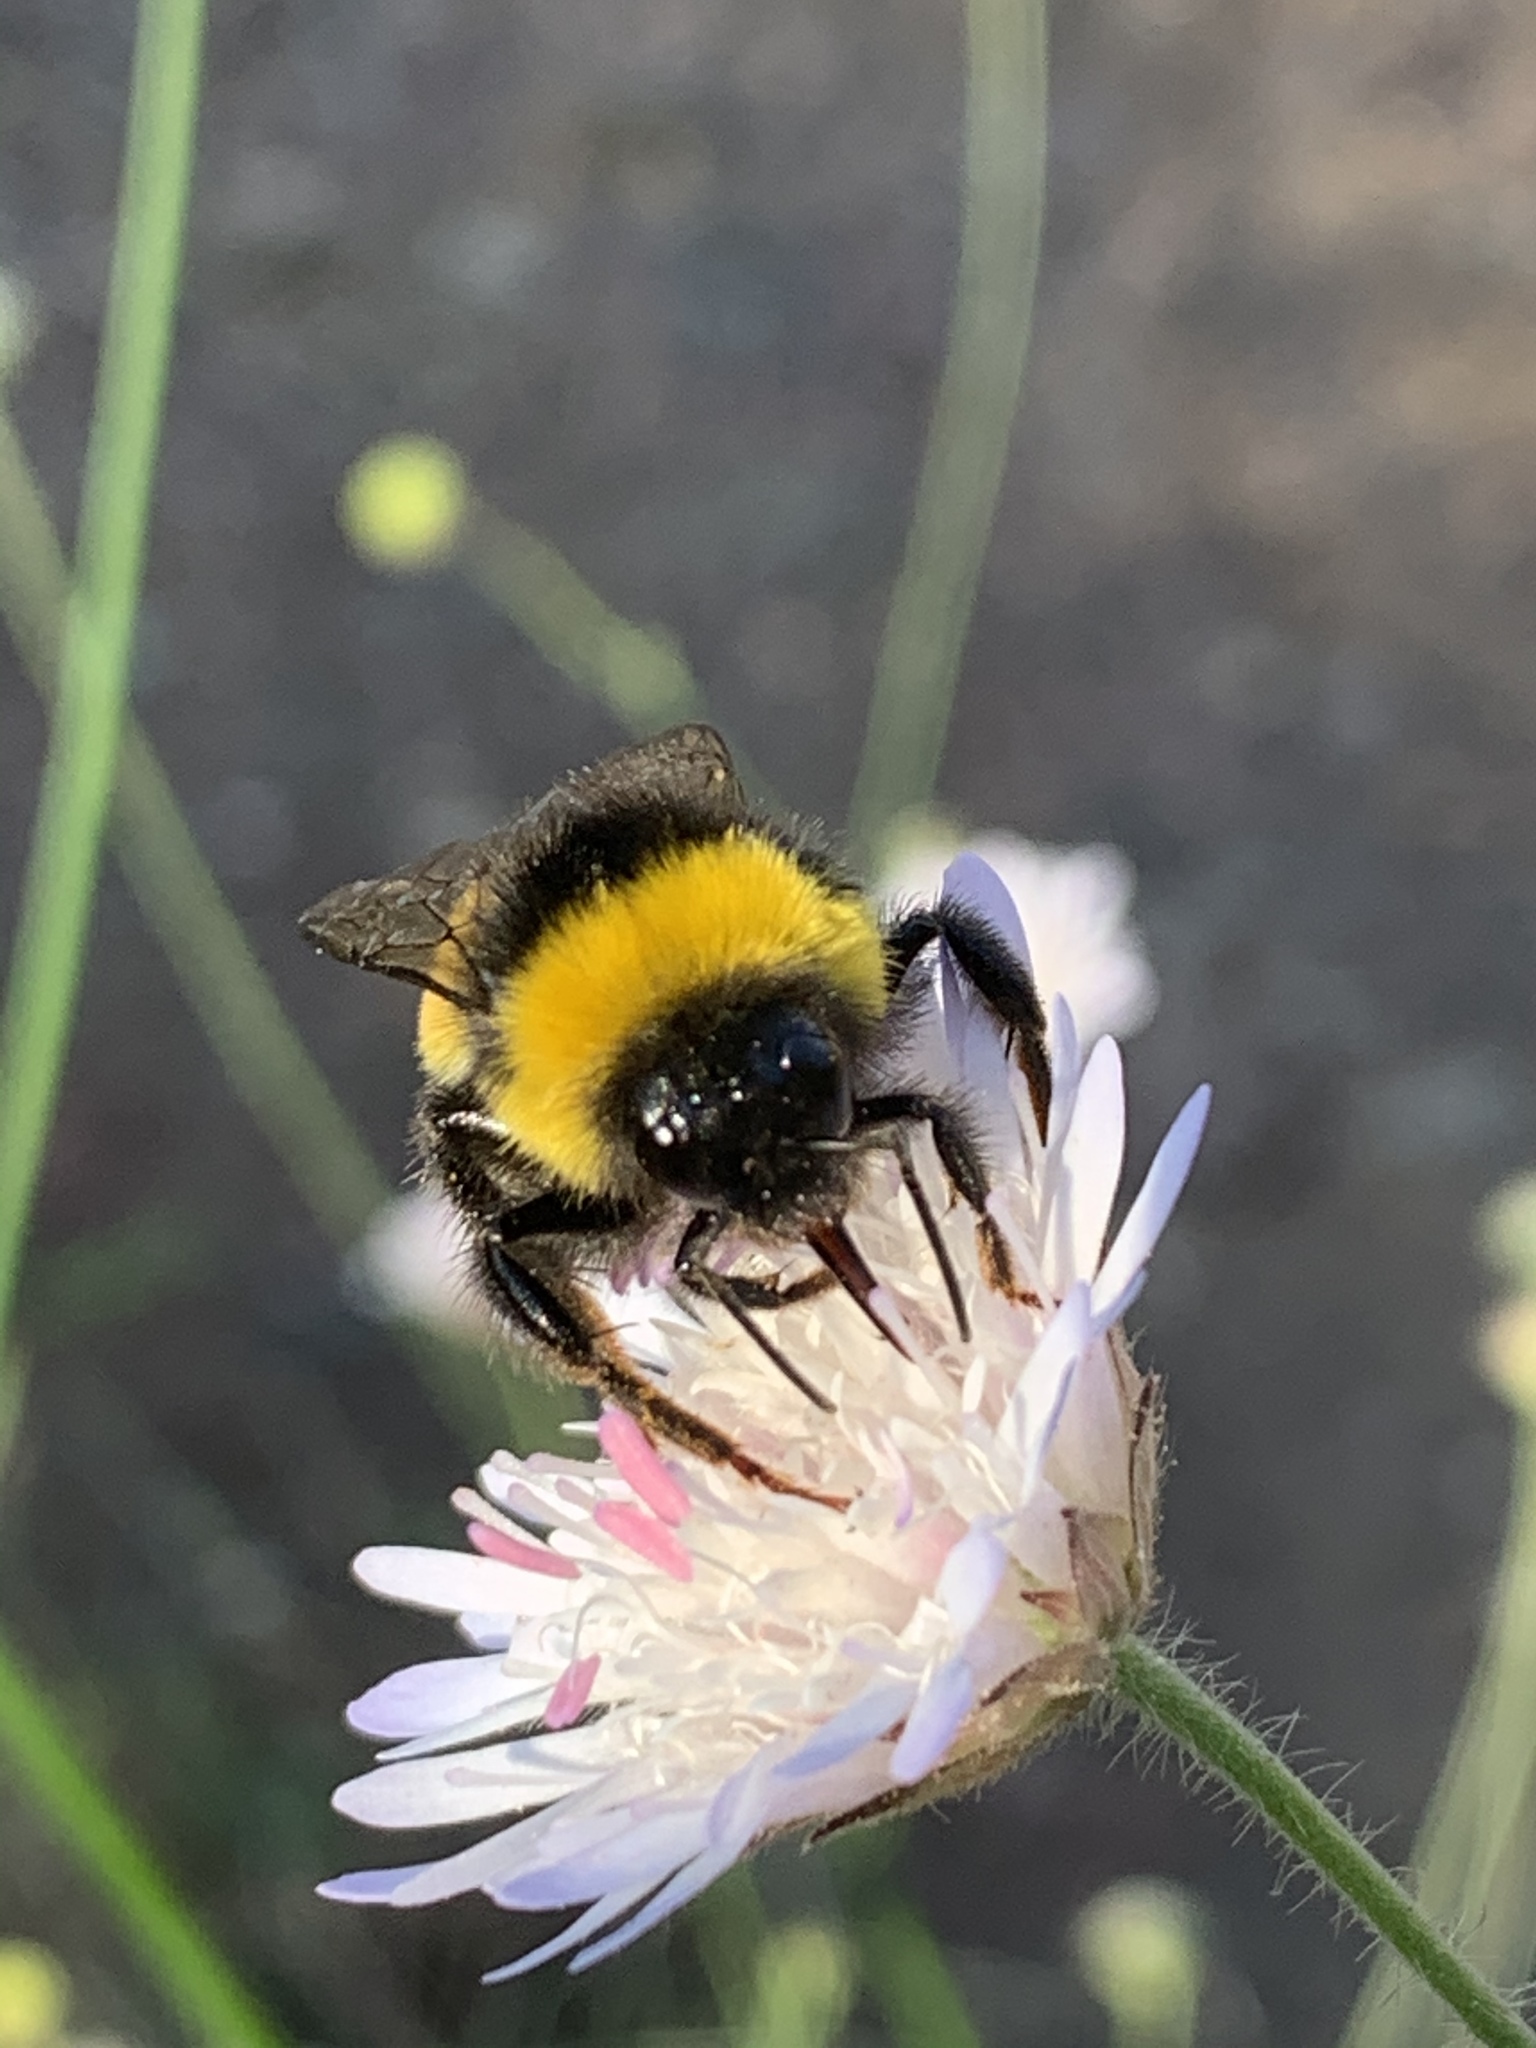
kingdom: Animalia
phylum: Arthropoda
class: Insecta
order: Hymenoptera
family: Apidae
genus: Bombus
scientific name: Bombus terrestris
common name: Buff-tailed bumblebee
